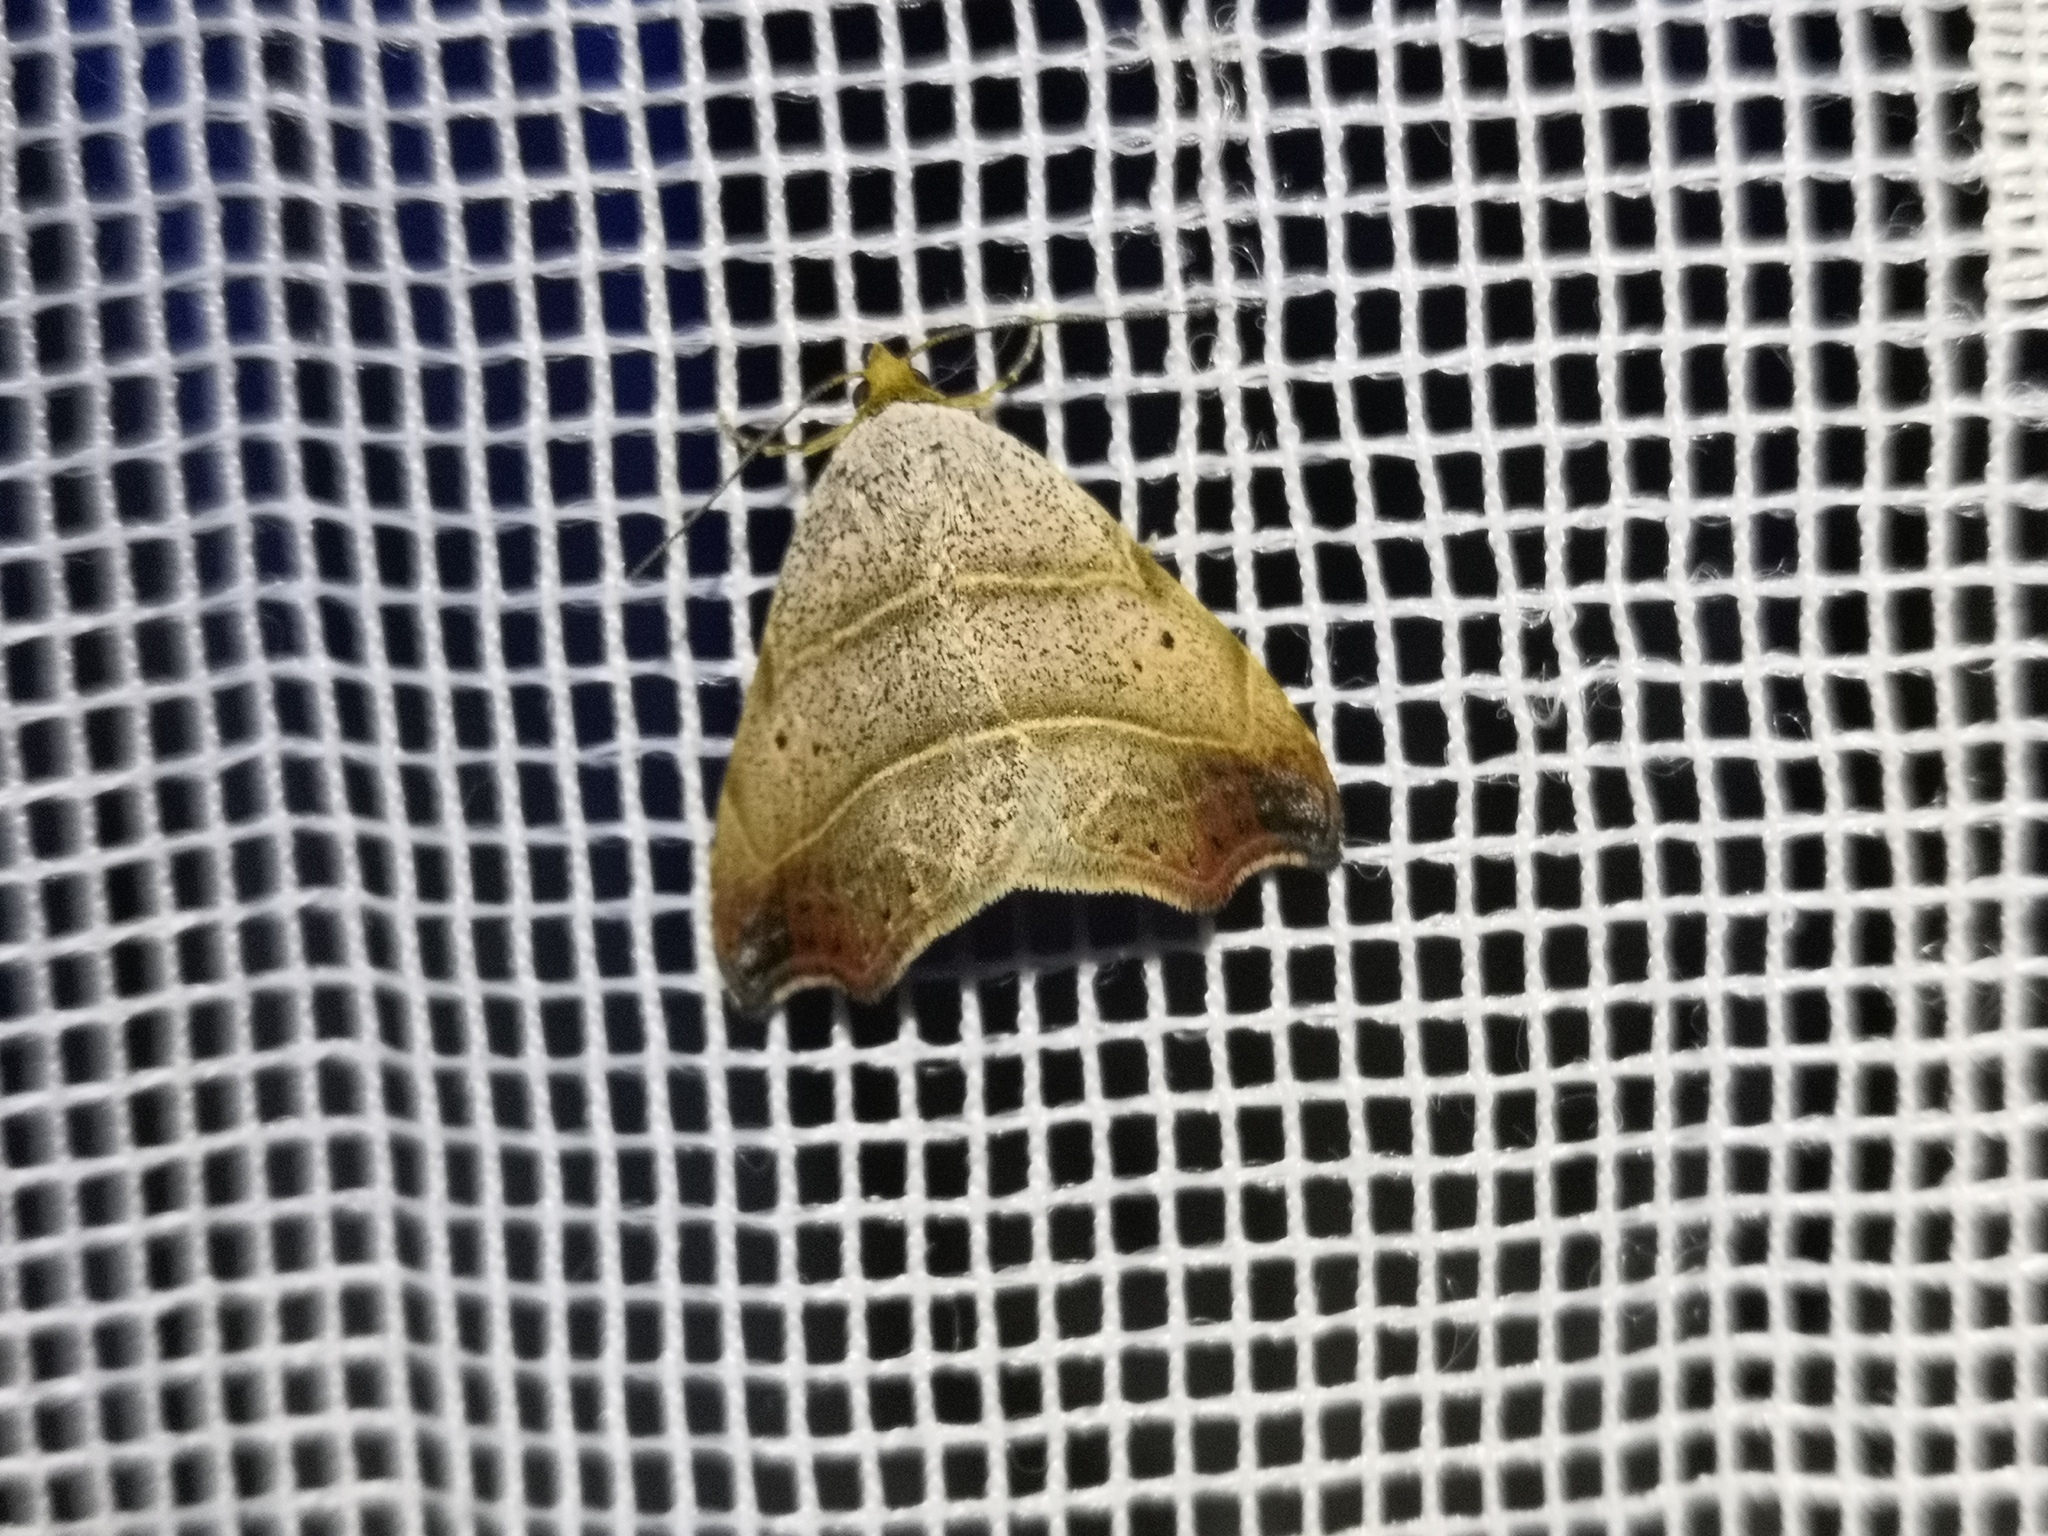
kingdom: Animalia
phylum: Arthropoda
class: Insecta
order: Lepidoptera
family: Erebidae
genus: Laspeyria
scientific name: Laspeyria flexula
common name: Beautiful hook-tip
